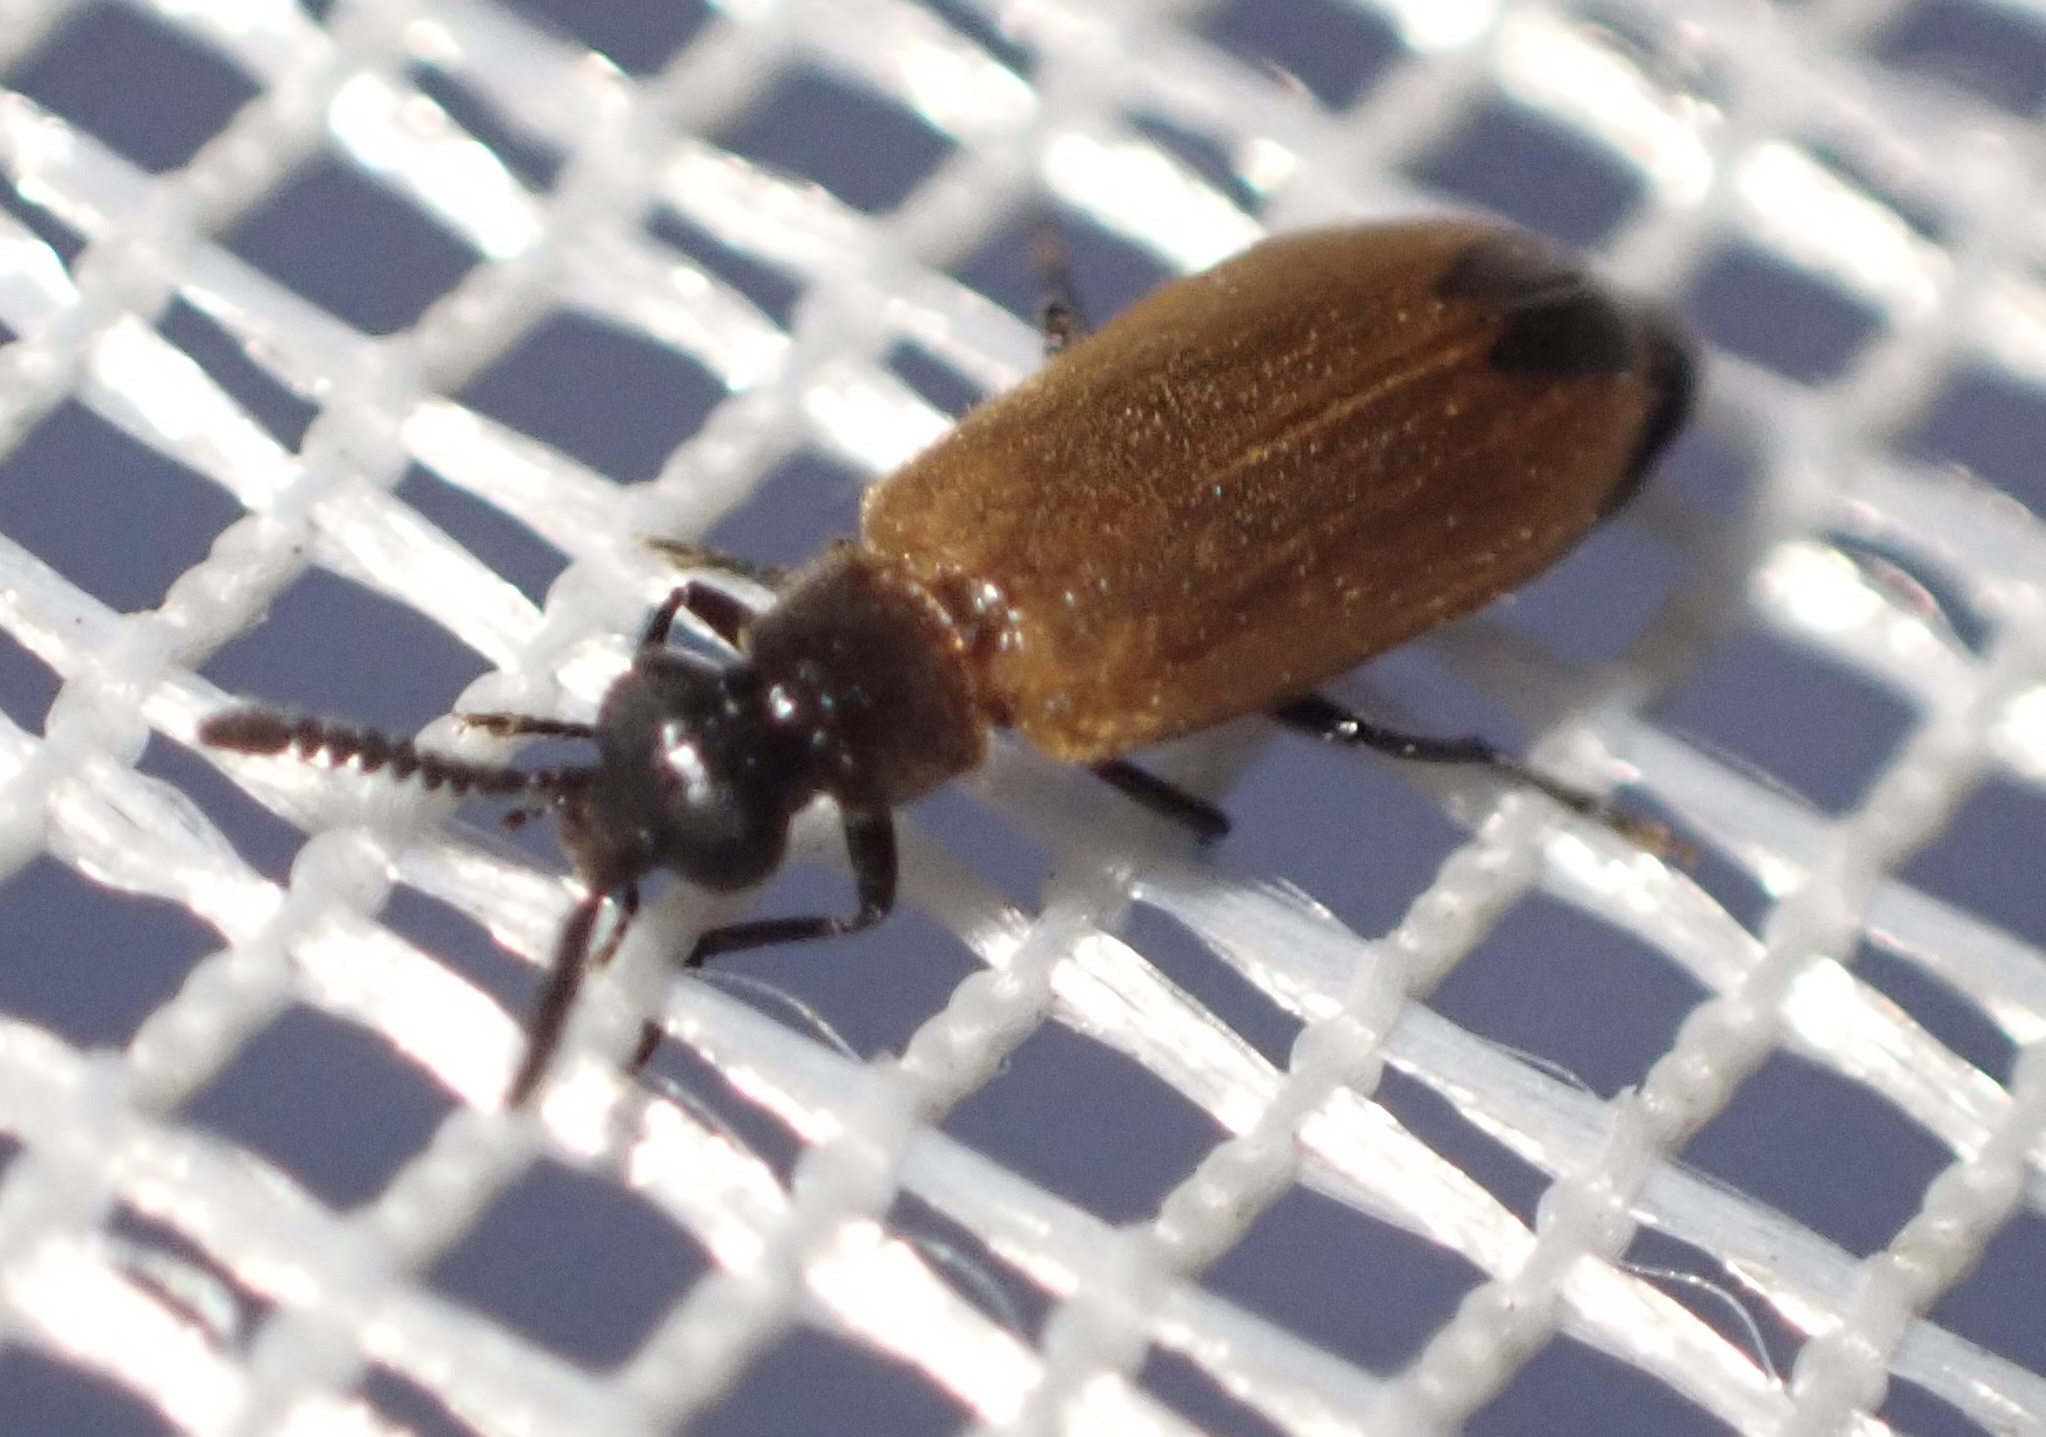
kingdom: Animalia
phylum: Arthropoda
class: Insecta
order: Coleoptera
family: Mycteridae
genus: Physciolagria
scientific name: Physciolagria smithi
